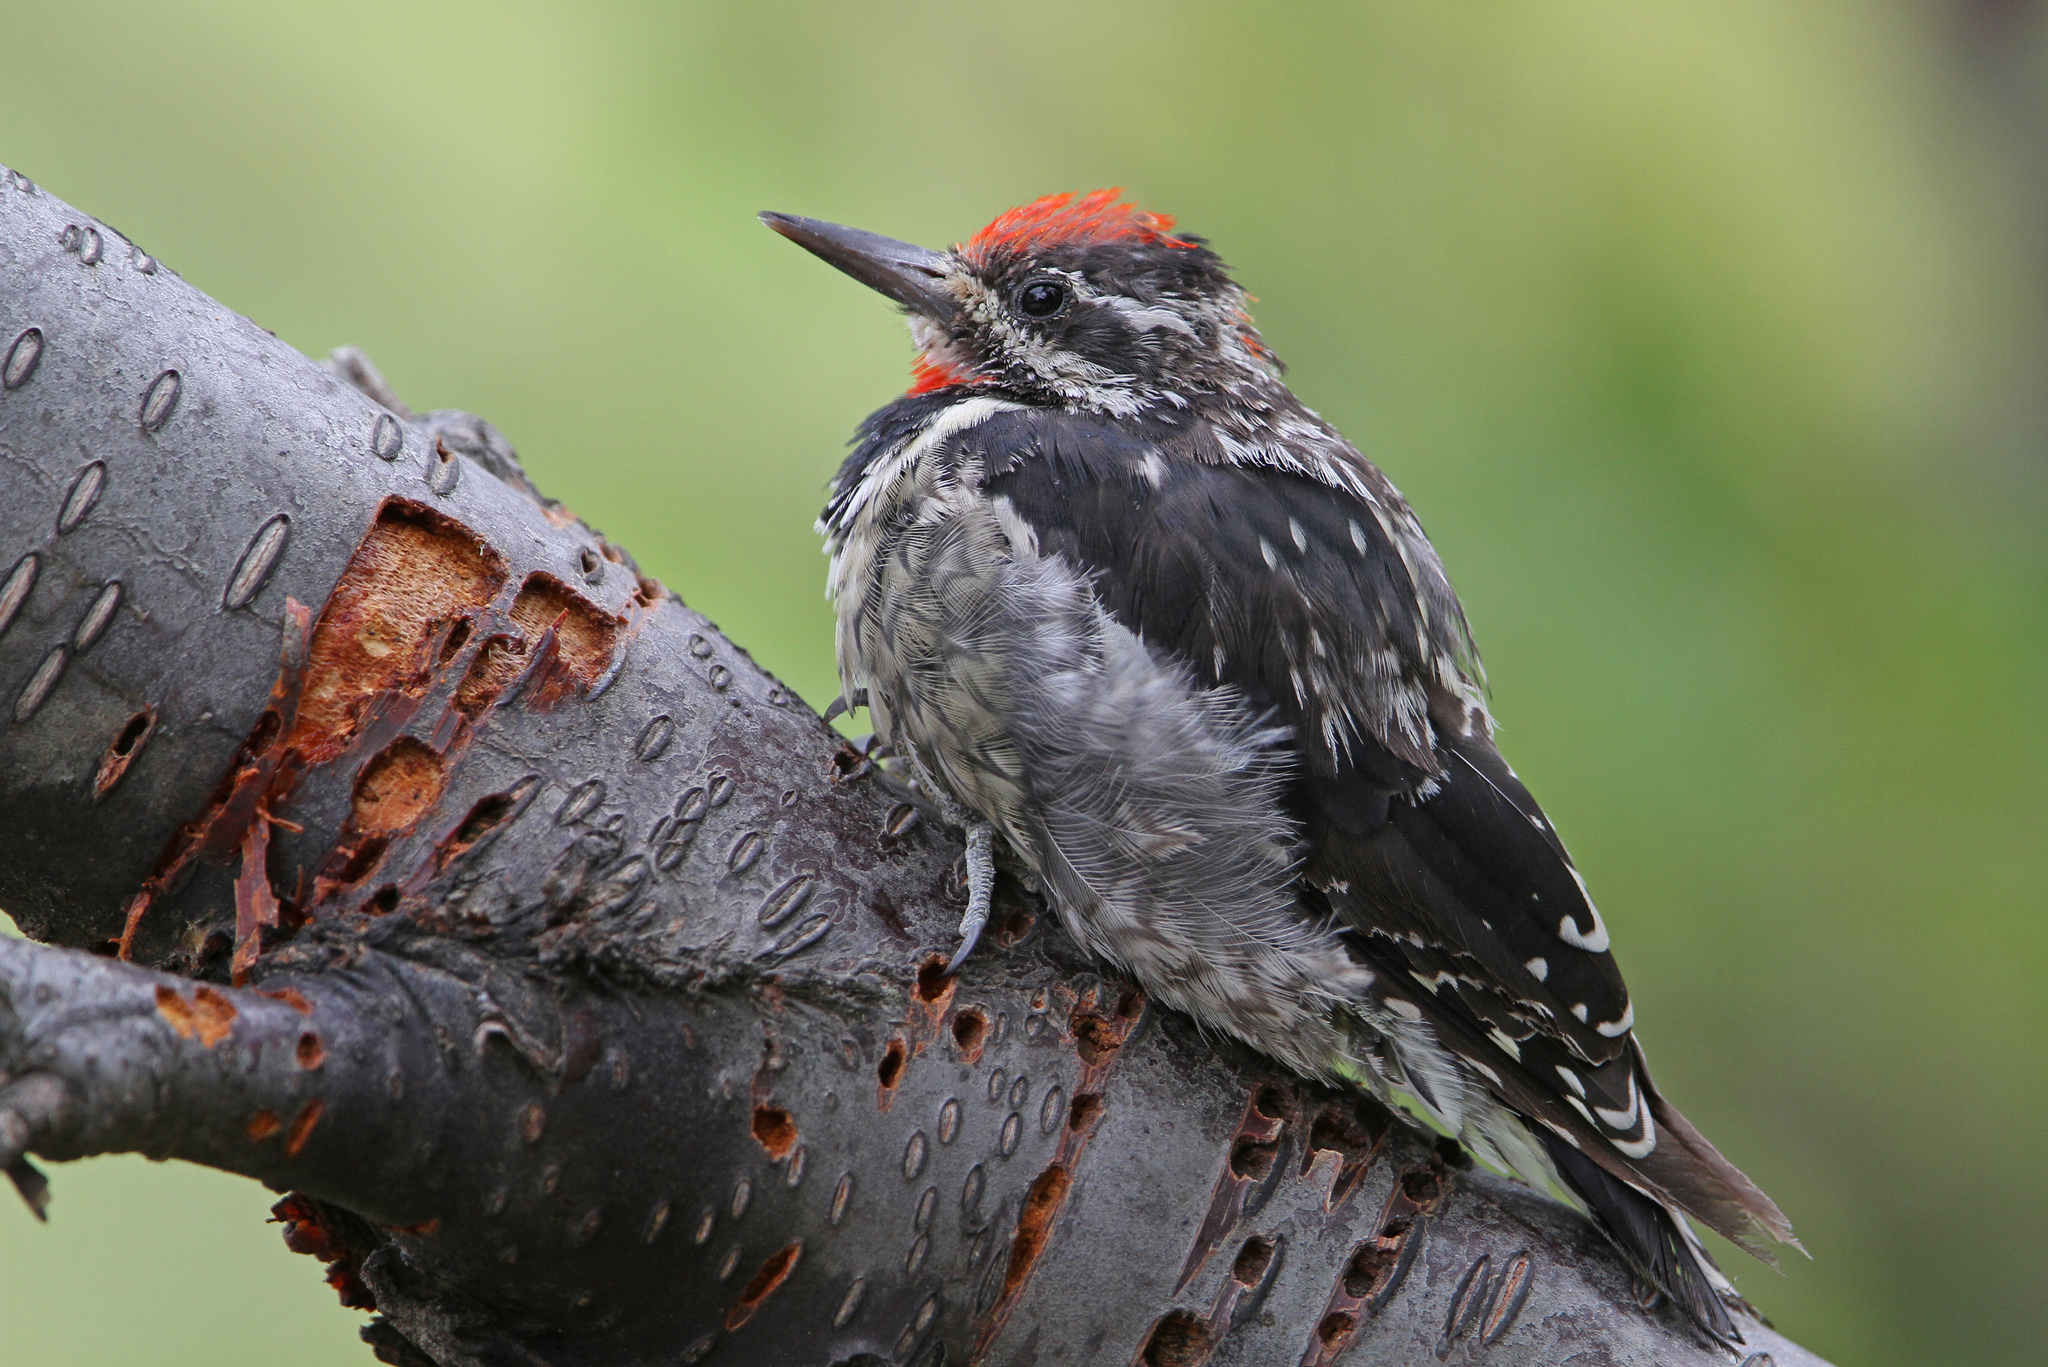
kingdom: Animalia
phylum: Chordata
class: Aves
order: Piciformes
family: Picidae
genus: Sphyrapicus
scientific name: Sphyrapicus nuchalis
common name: Red-naped sapsucker
